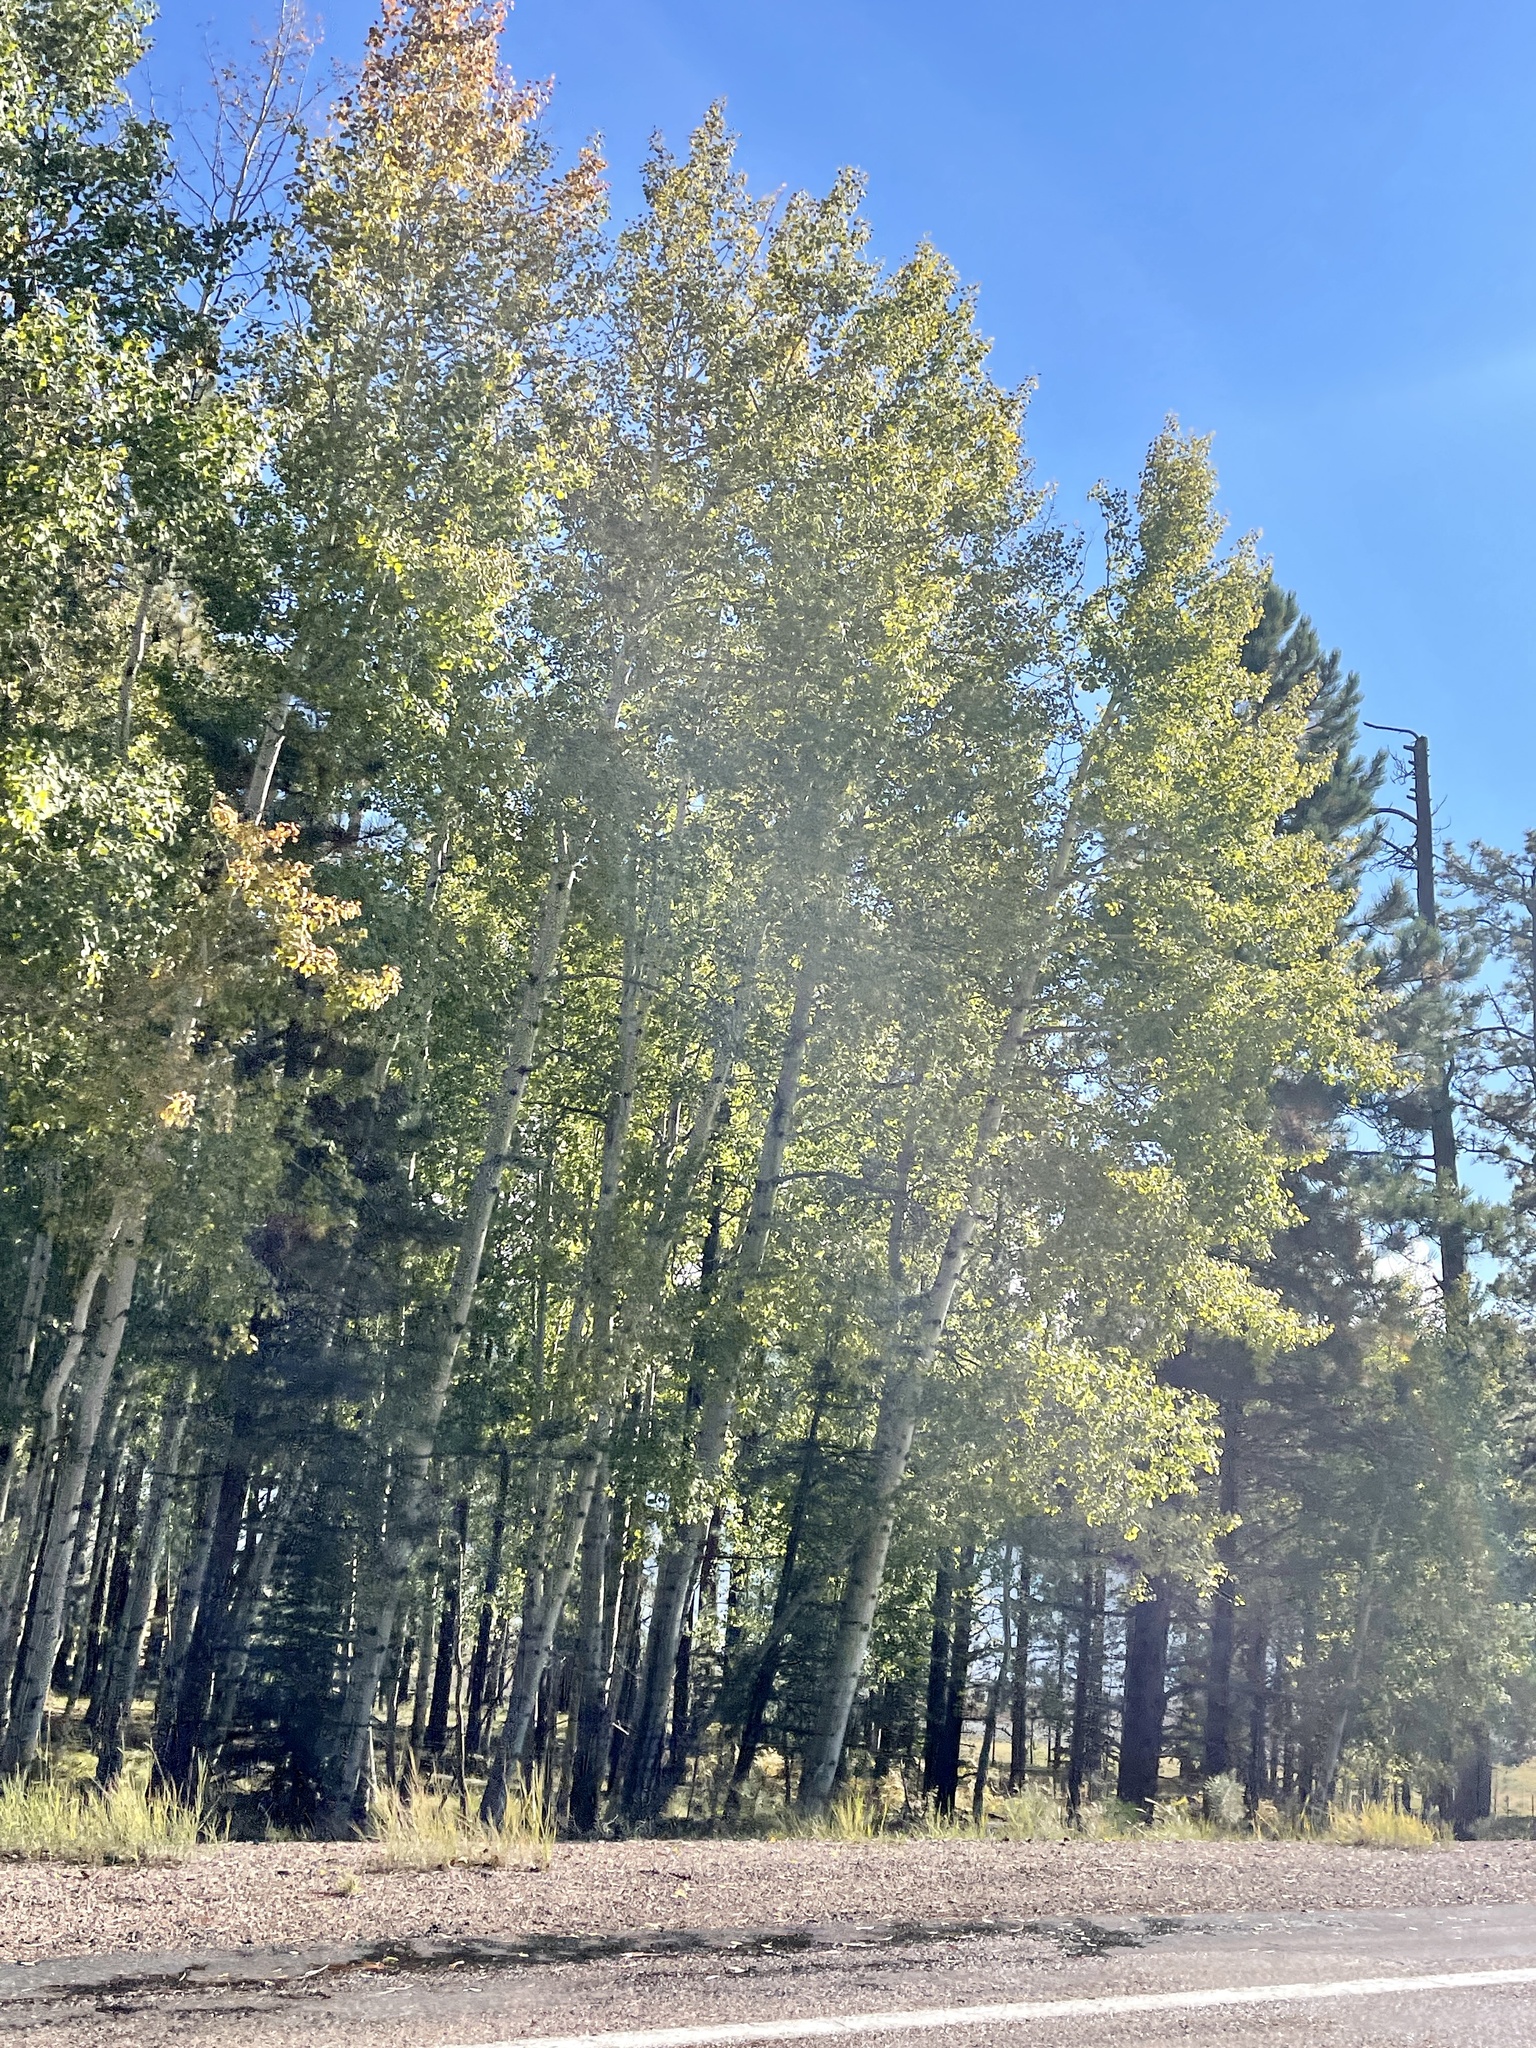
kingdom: Plantae
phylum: Tracheophyta
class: Magnoliopsida
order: Malpighiales
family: Salicaceae
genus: Populus
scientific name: Populus tremuloides
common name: Quaking aspen
